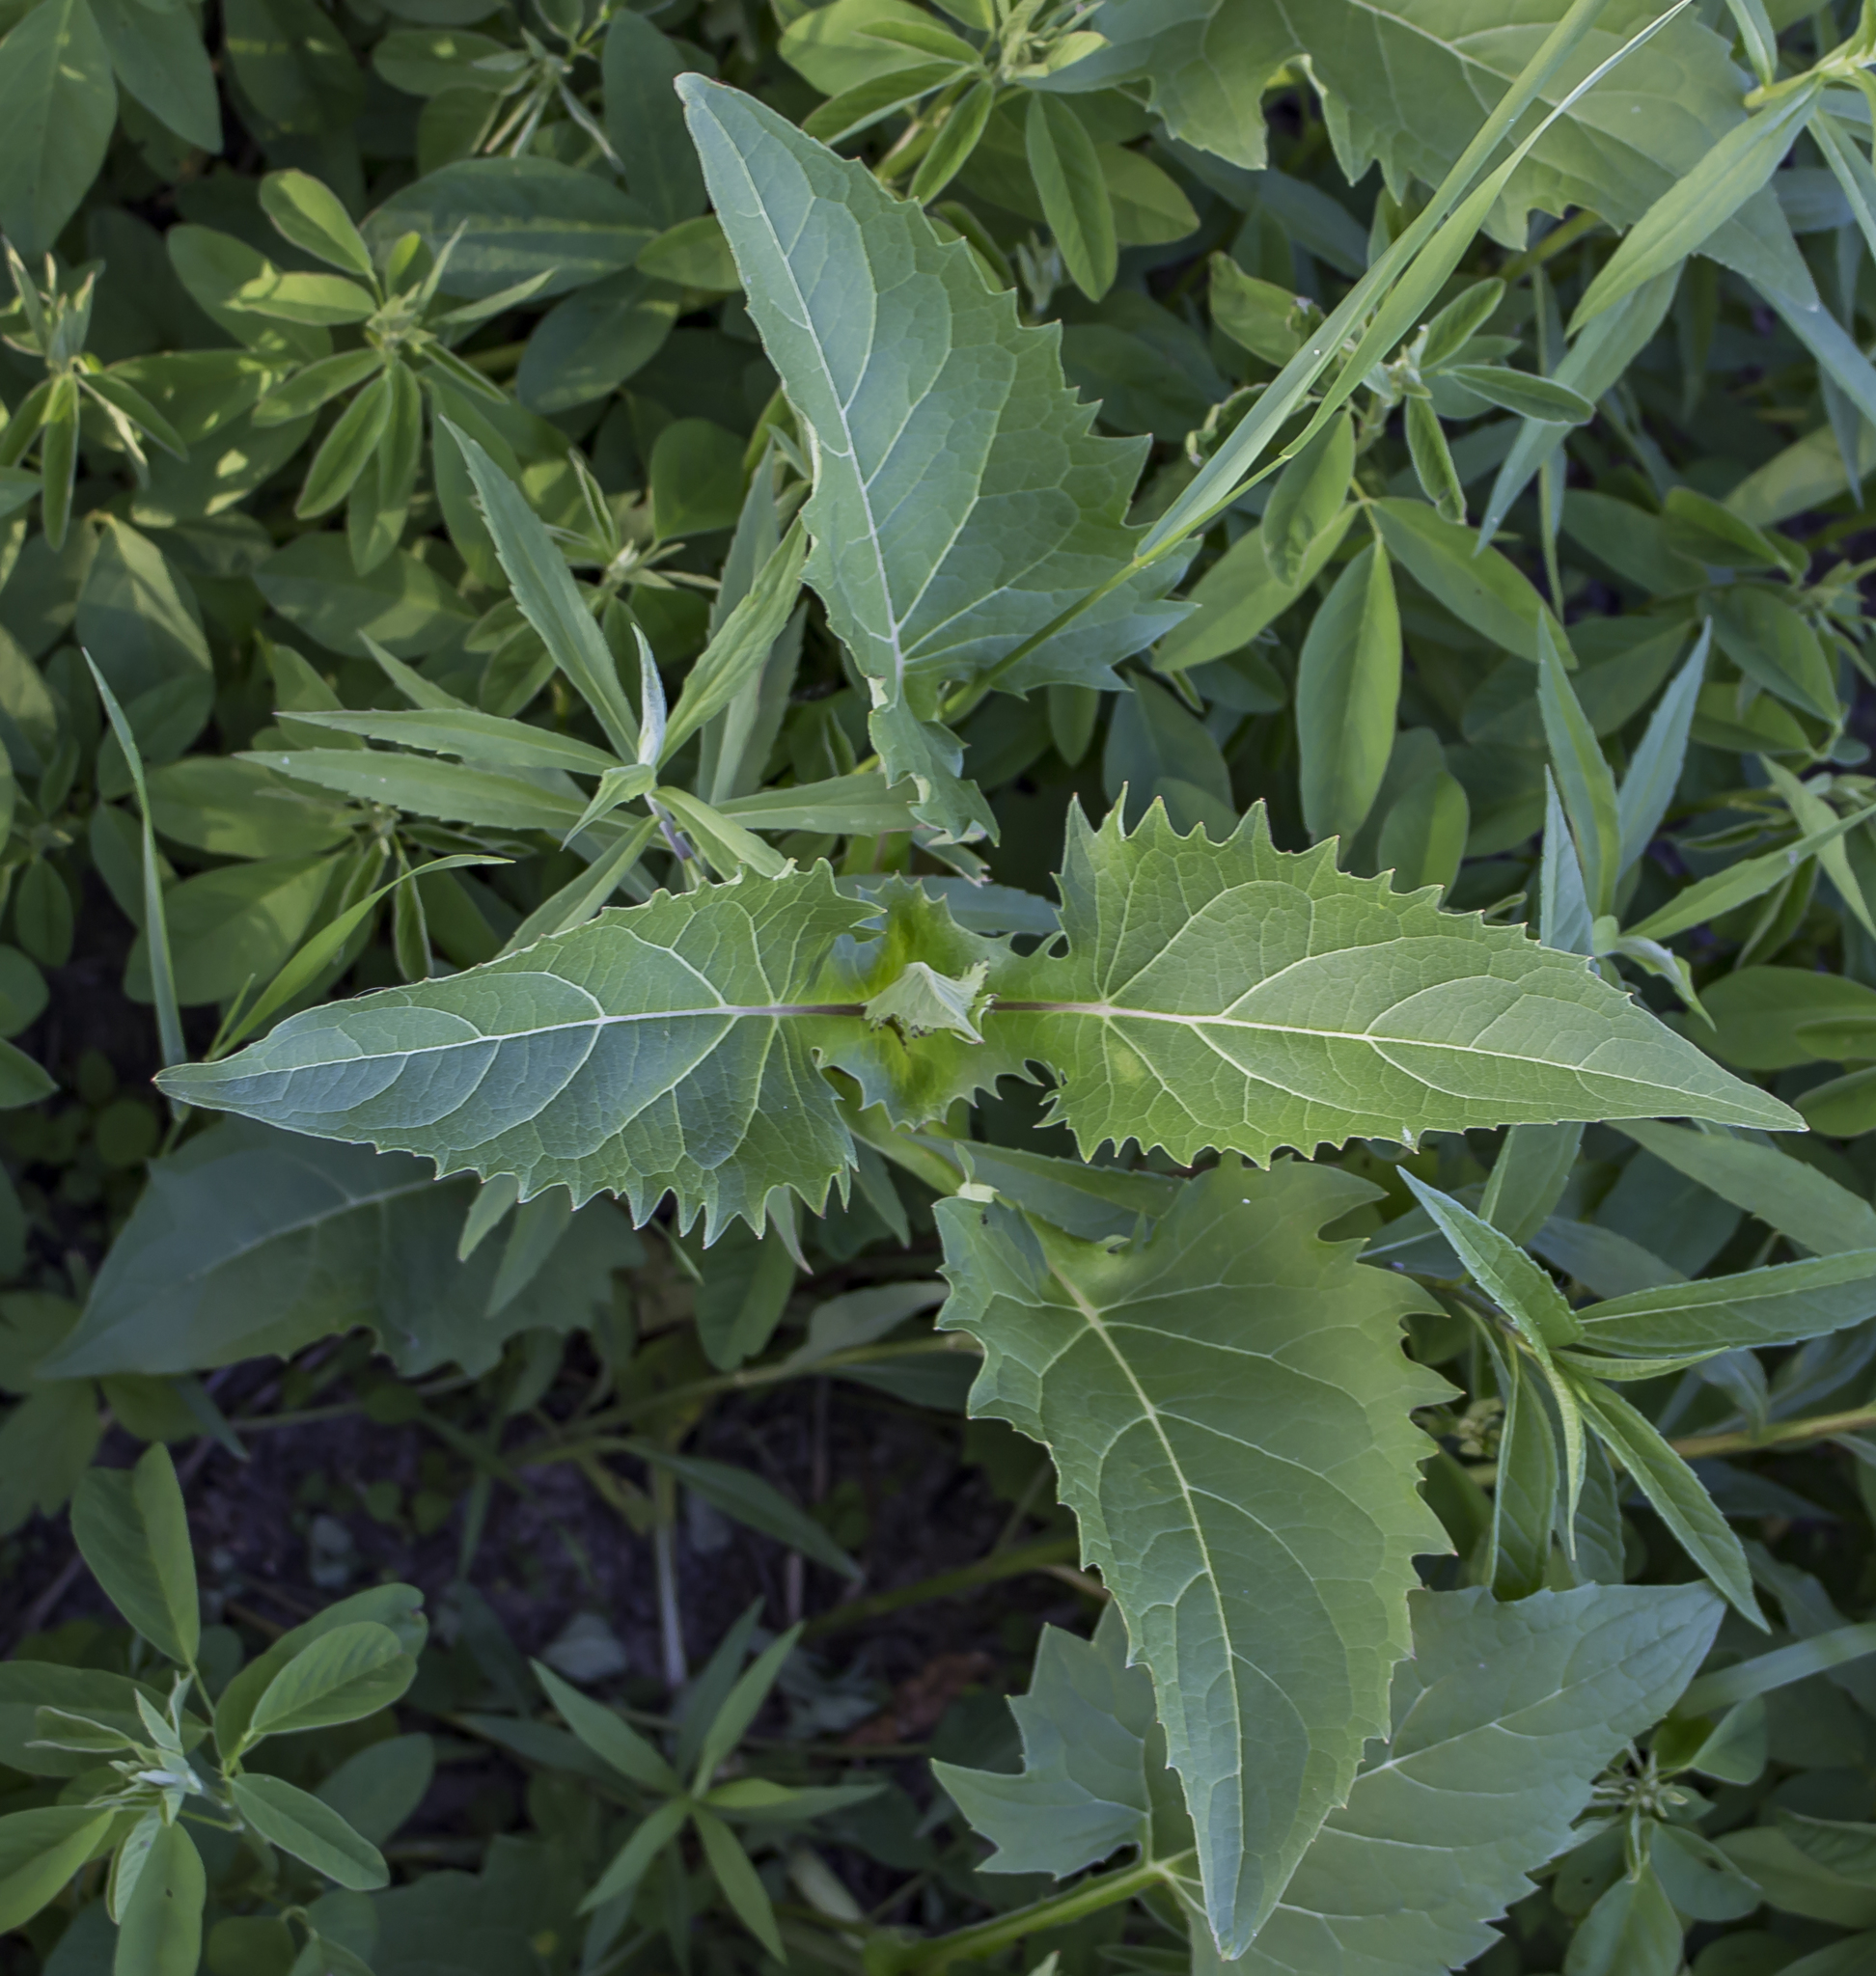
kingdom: Plantae
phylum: Tracheophyta
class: Magnoliopsida
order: Asterales
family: Asteraceae
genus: Silphium
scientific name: Silphium perfoliatum
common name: Cup-plant
